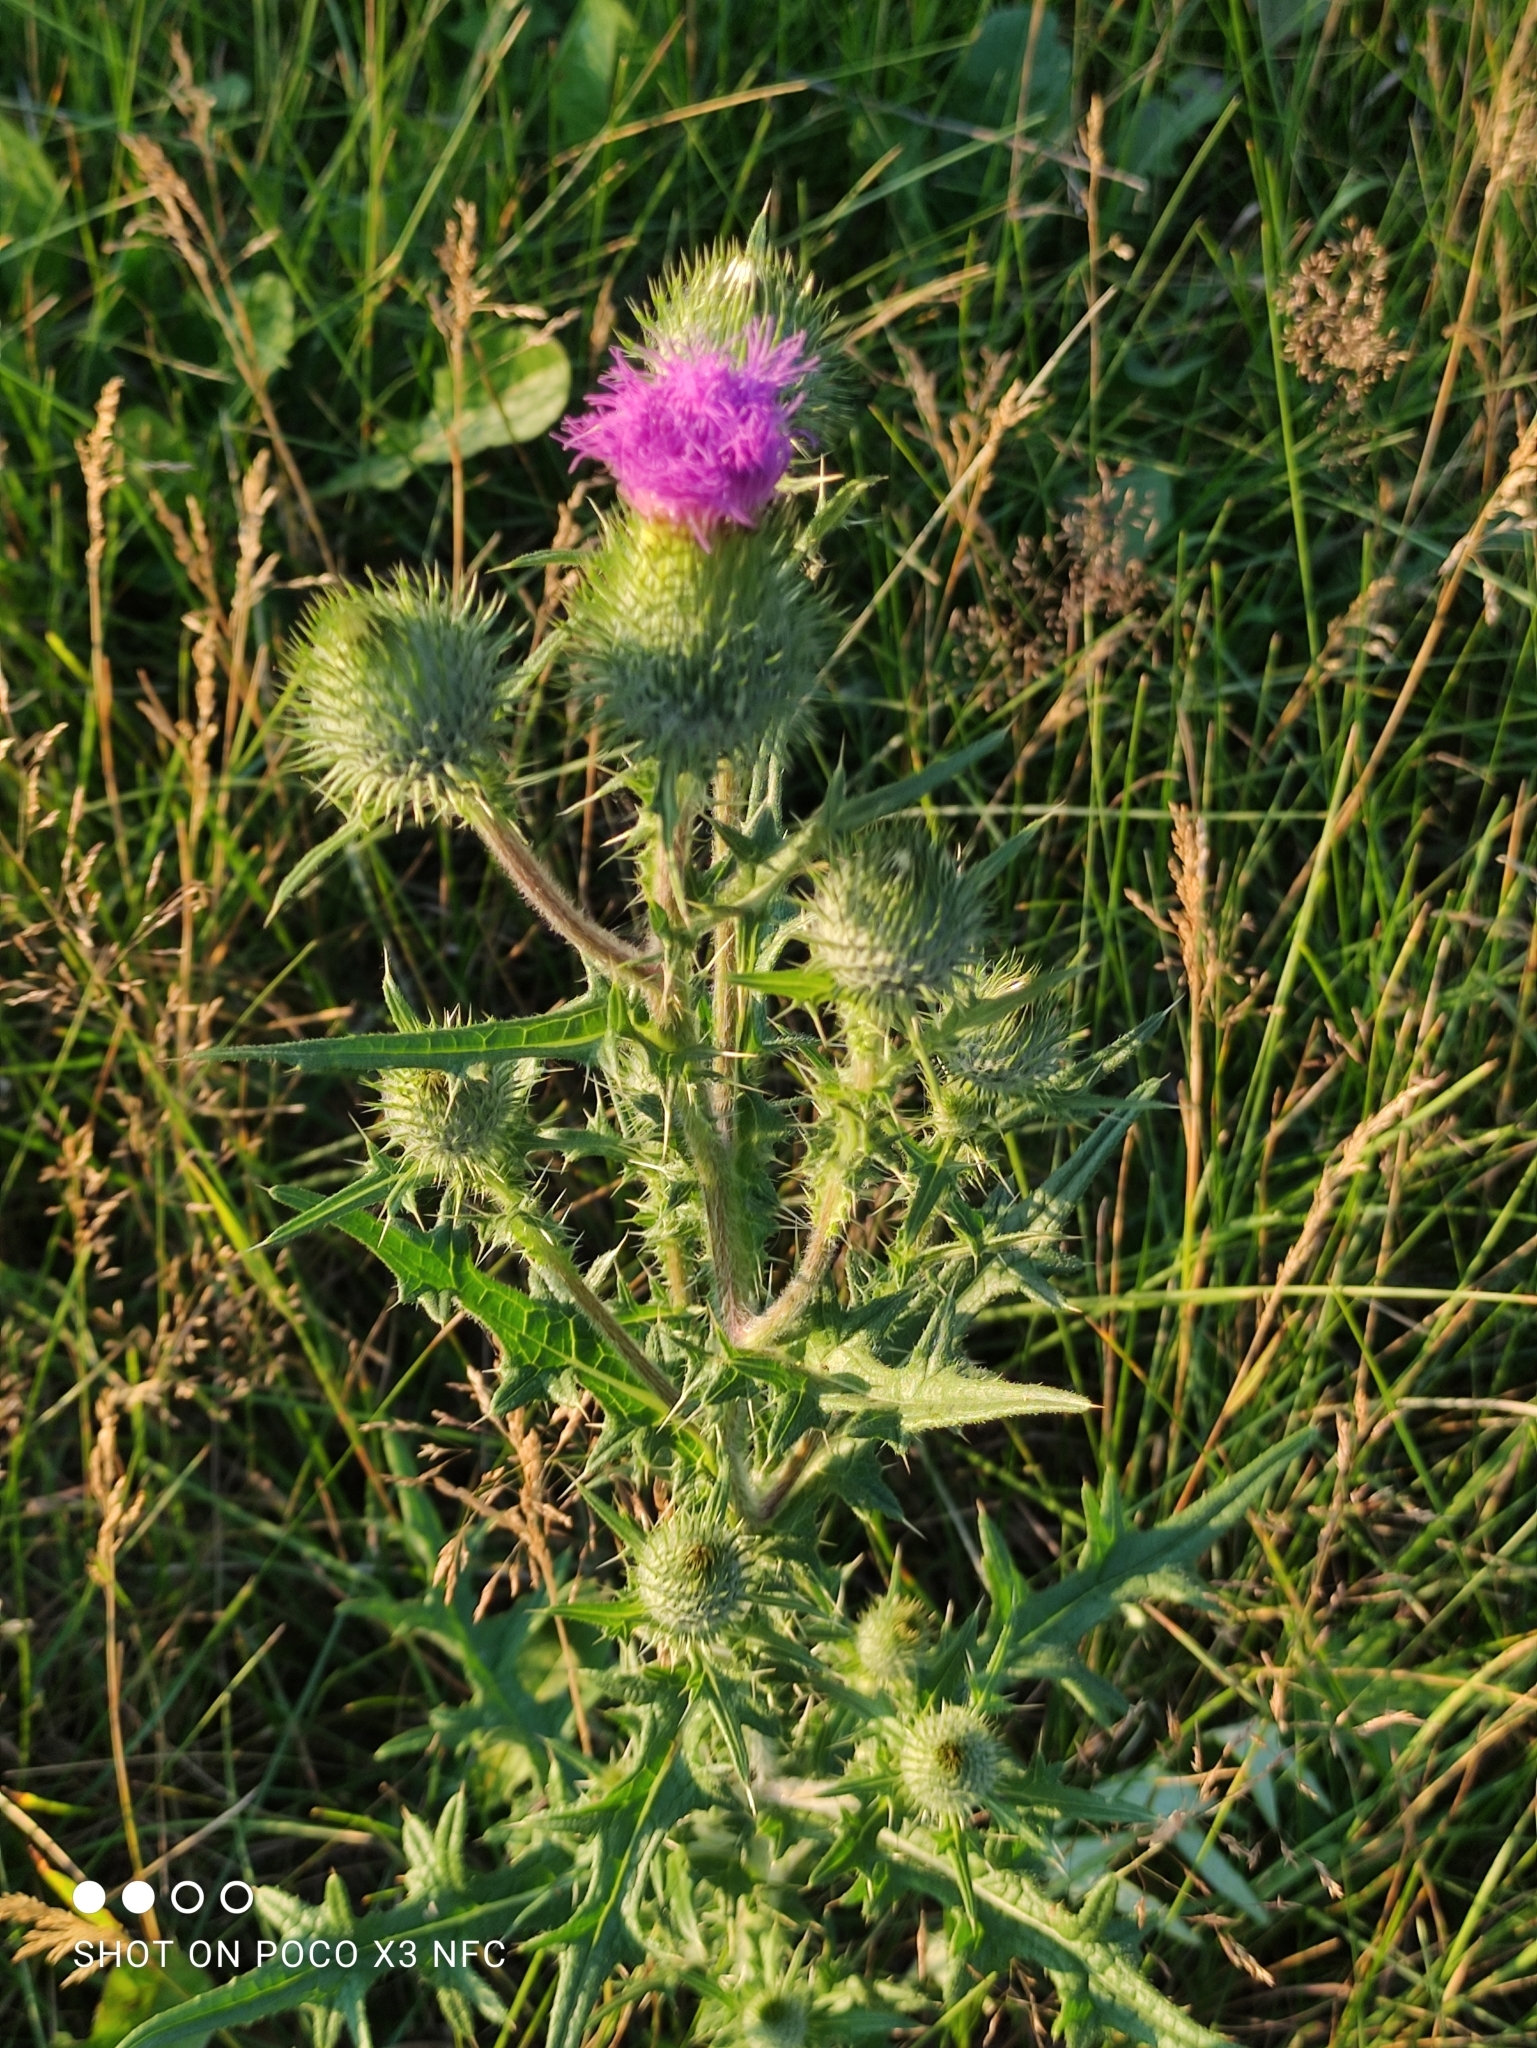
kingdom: Plantae
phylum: Tracheophyta
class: Magnoliopsida
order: Asterales
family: Asteraceae
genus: Cirsium
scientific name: Cirsium vulgare
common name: Bull thistle
